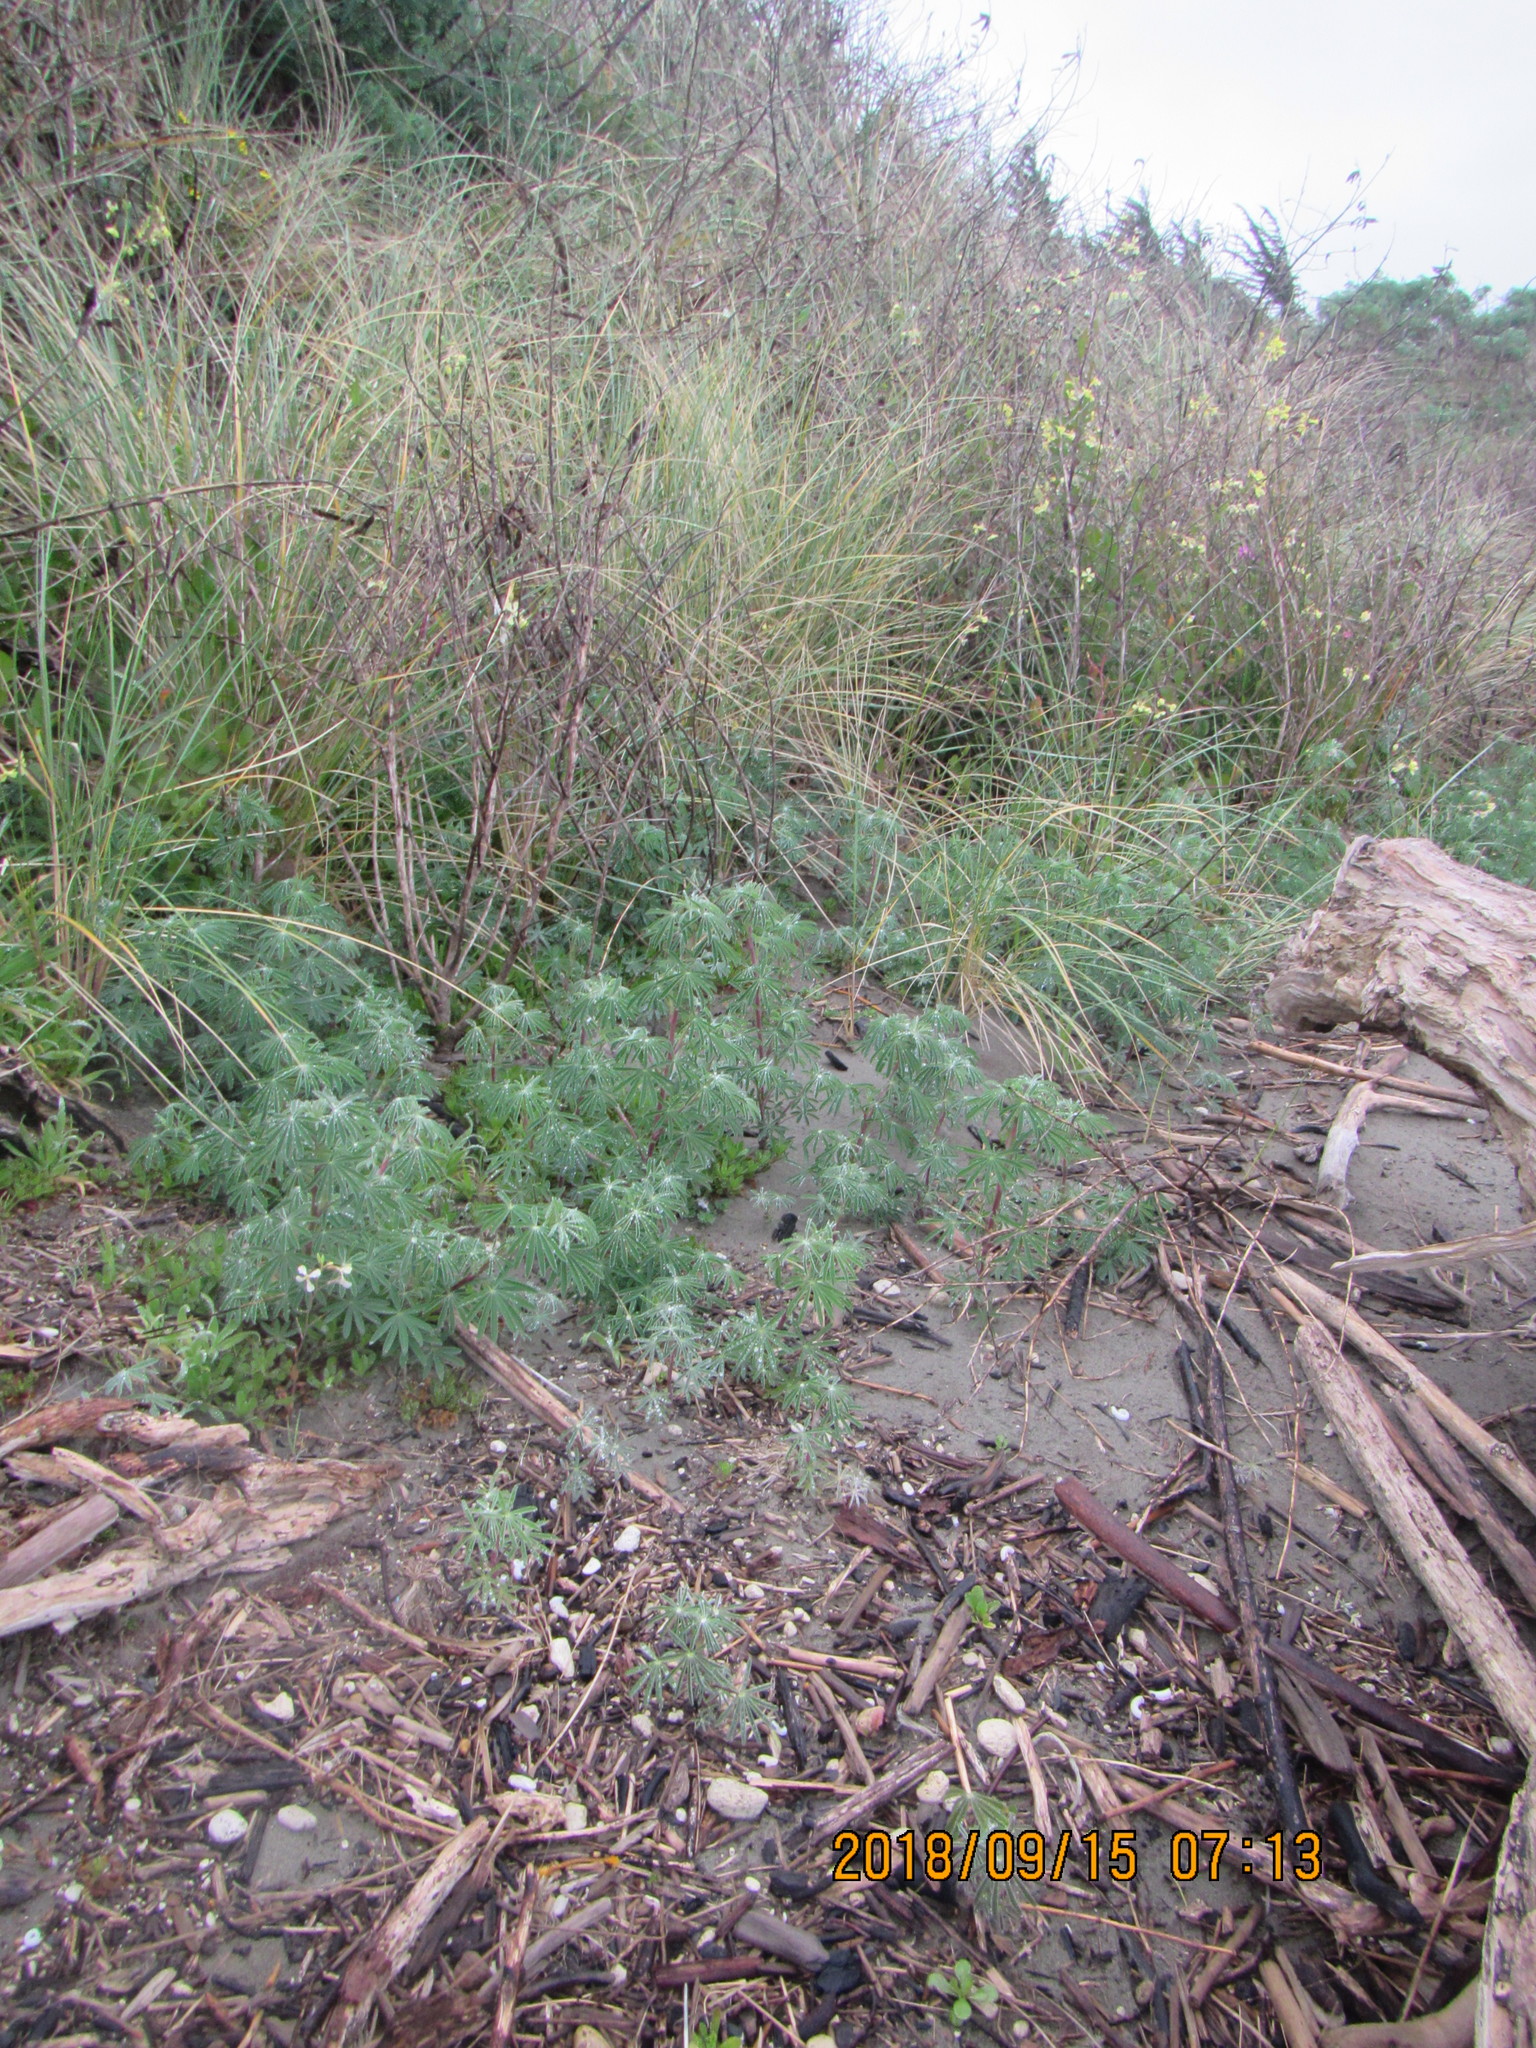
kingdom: Plantae
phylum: Tracheophyta
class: Magnoliopsida
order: Fabales
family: Fabaceae
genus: Lupinus
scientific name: Lupinus arboreus
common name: Yellow bush lupine
